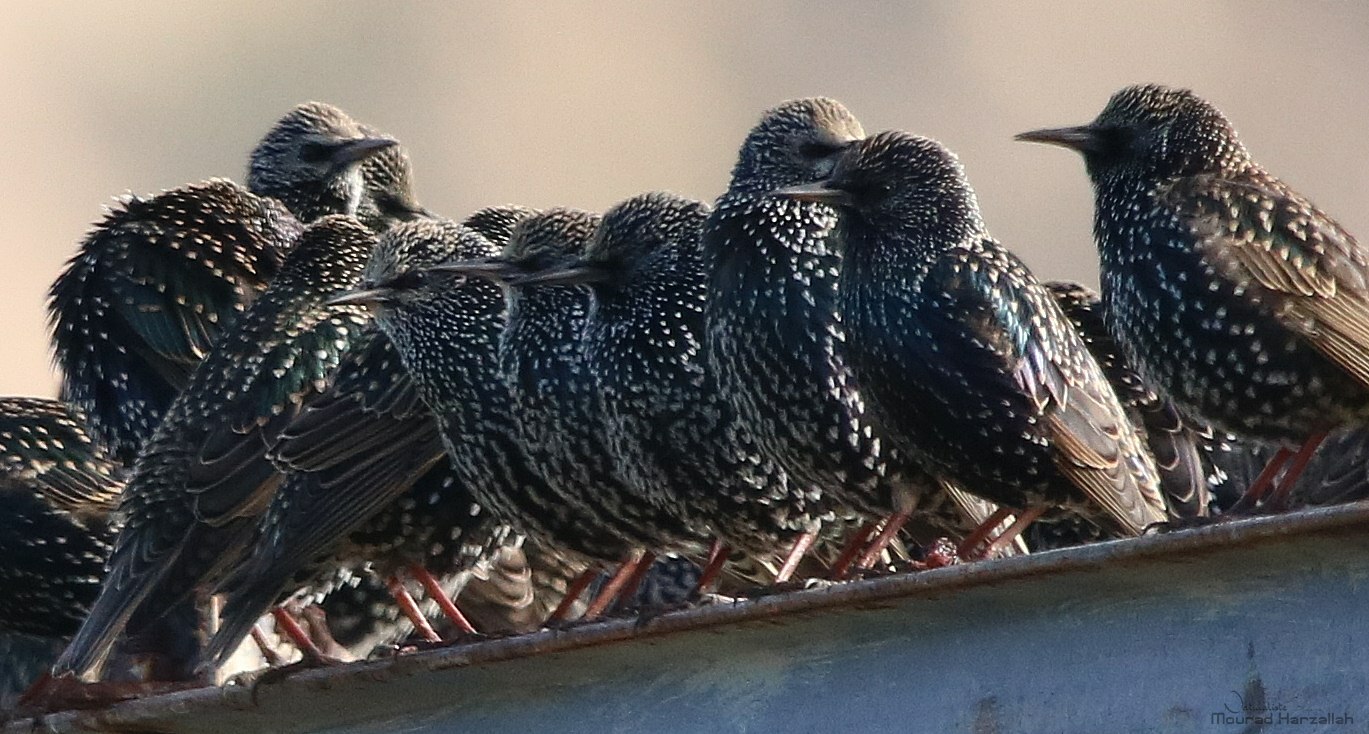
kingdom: Animalia
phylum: Chordata
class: Aves
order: Passeriformes
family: Sturnidae
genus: Sturnus
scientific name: Sturnus vulgaris
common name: Common starling
